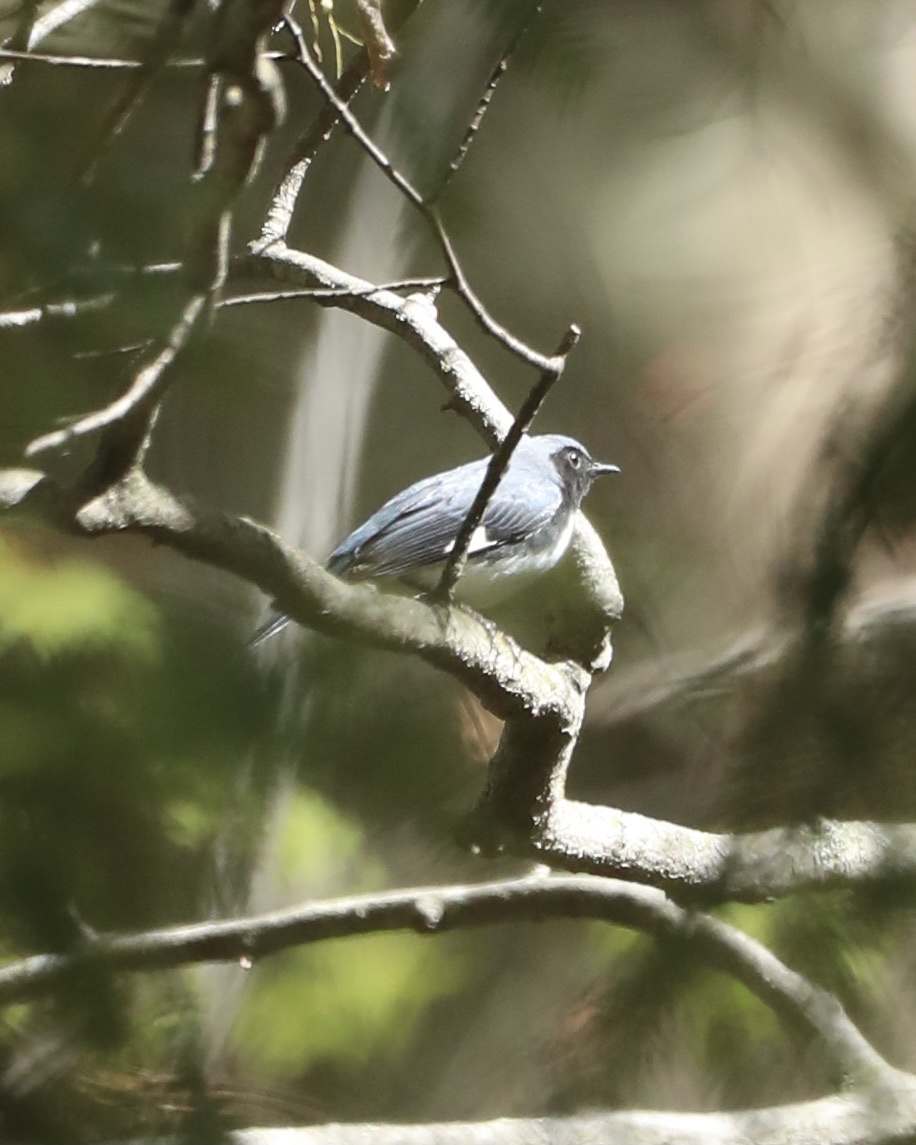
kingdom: Animalia
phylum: Chordata
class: Aves
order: Passeriformes
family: Parulidae
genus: Setophaga
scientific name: Setophaga caerulescens
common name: Black-throated blue warbler
